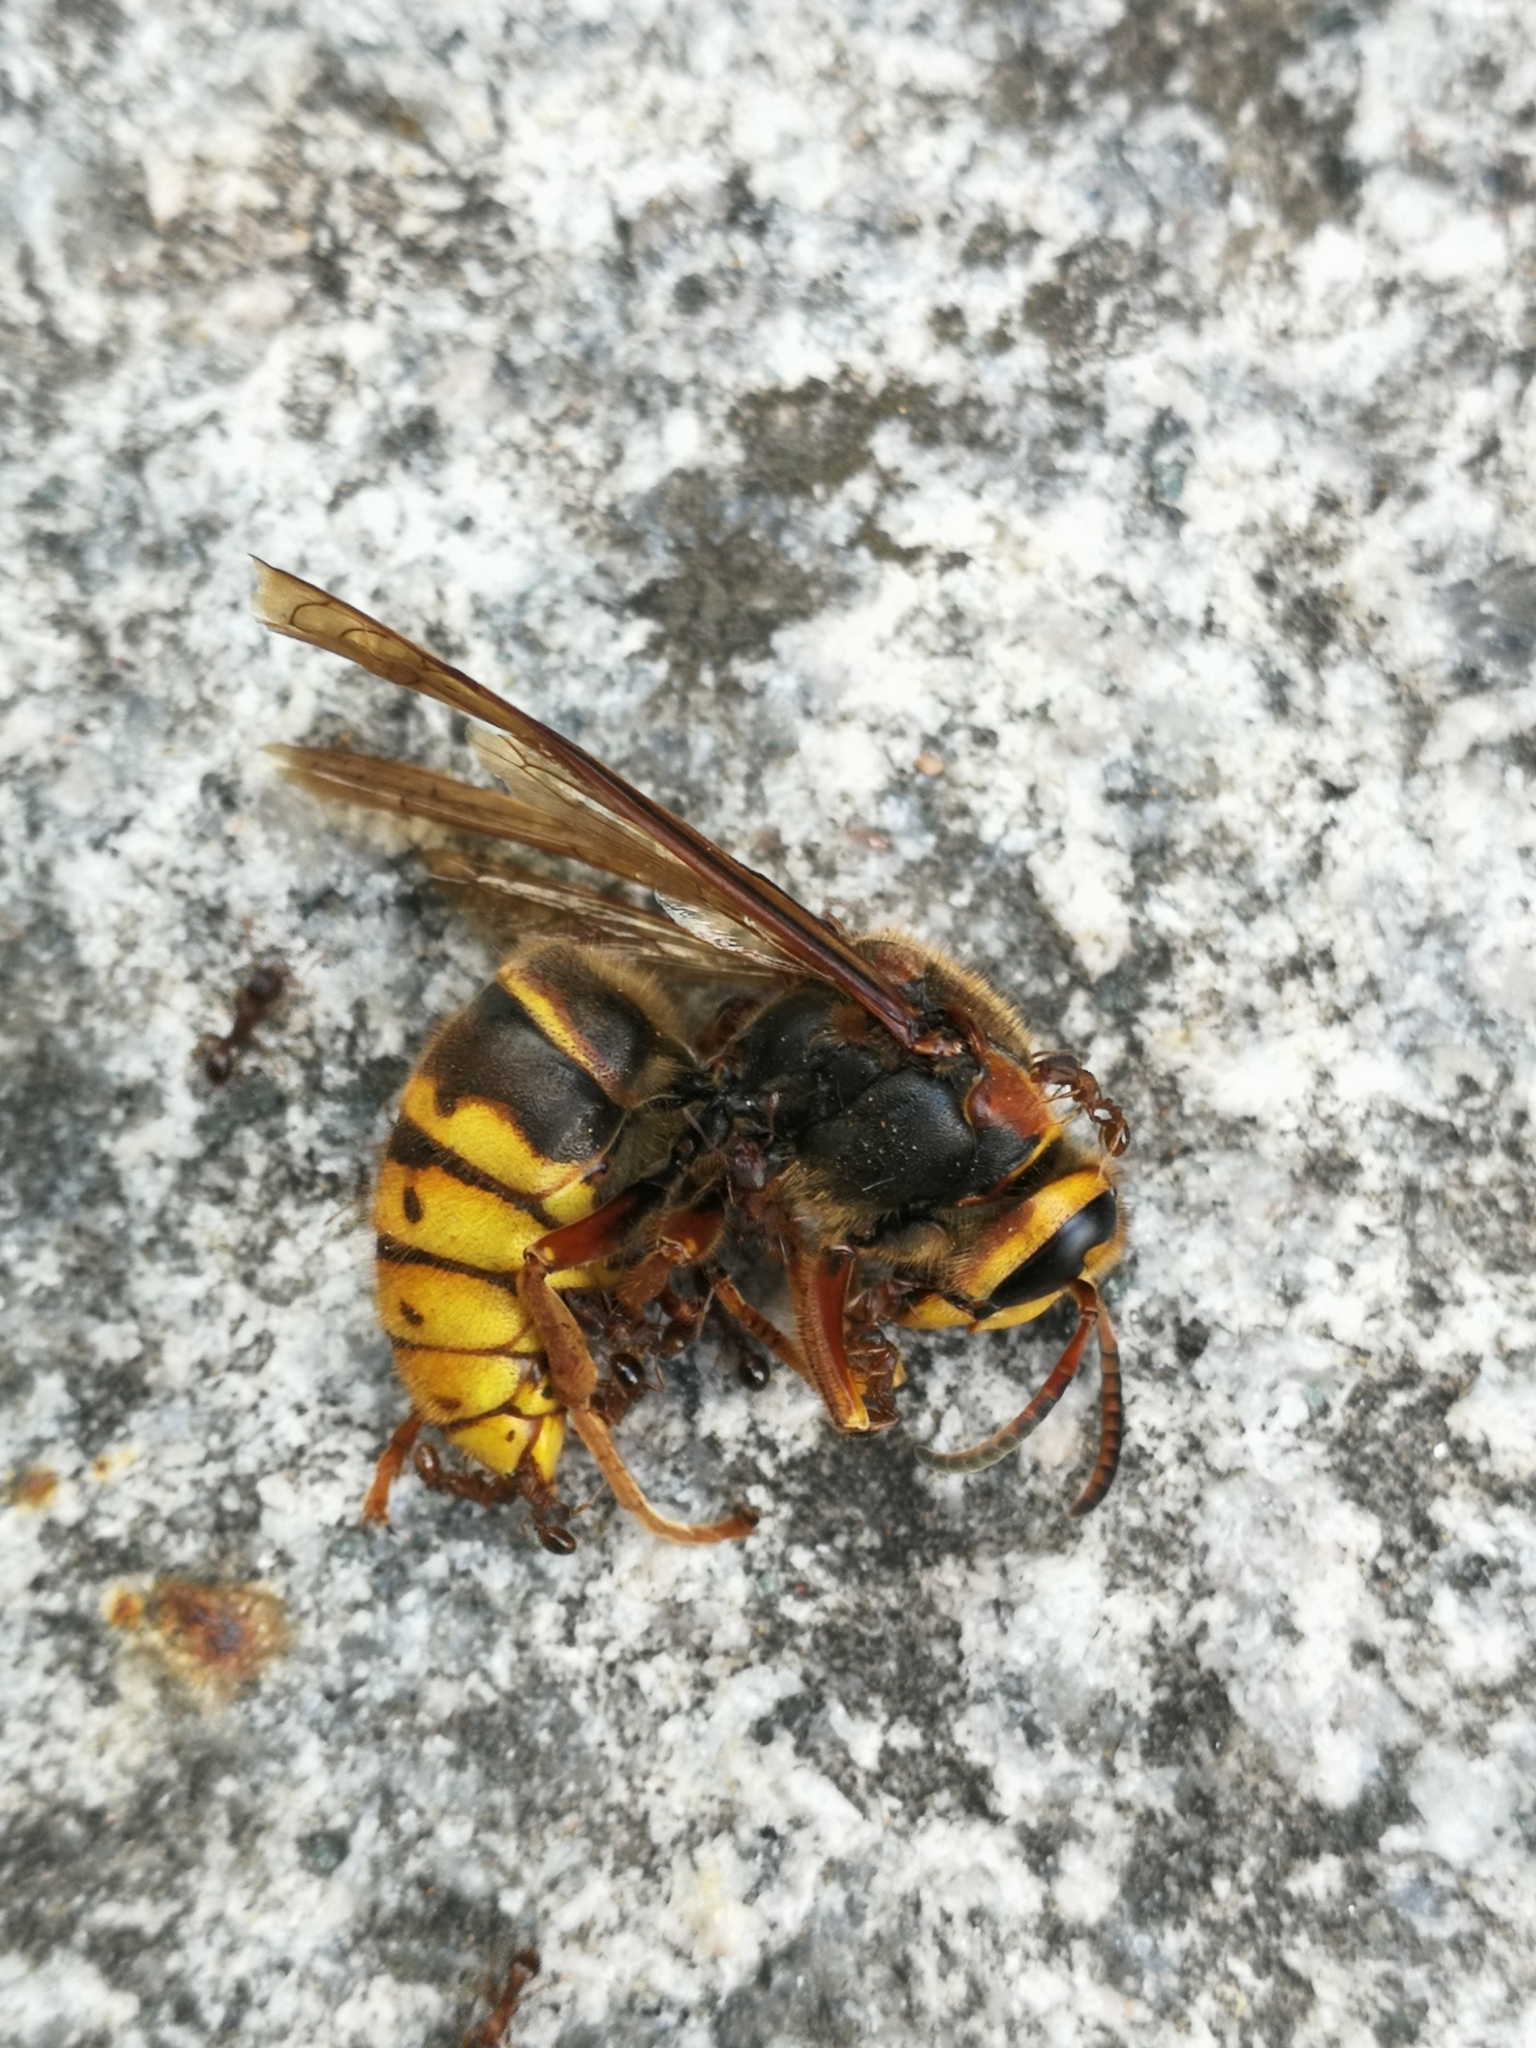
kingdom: Animalia
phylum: Arthropoda
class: Insecta
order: Hymenoptera
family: Vespidae
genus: Dolichovespula
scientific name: Dolichovespula media
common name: Median wasp
